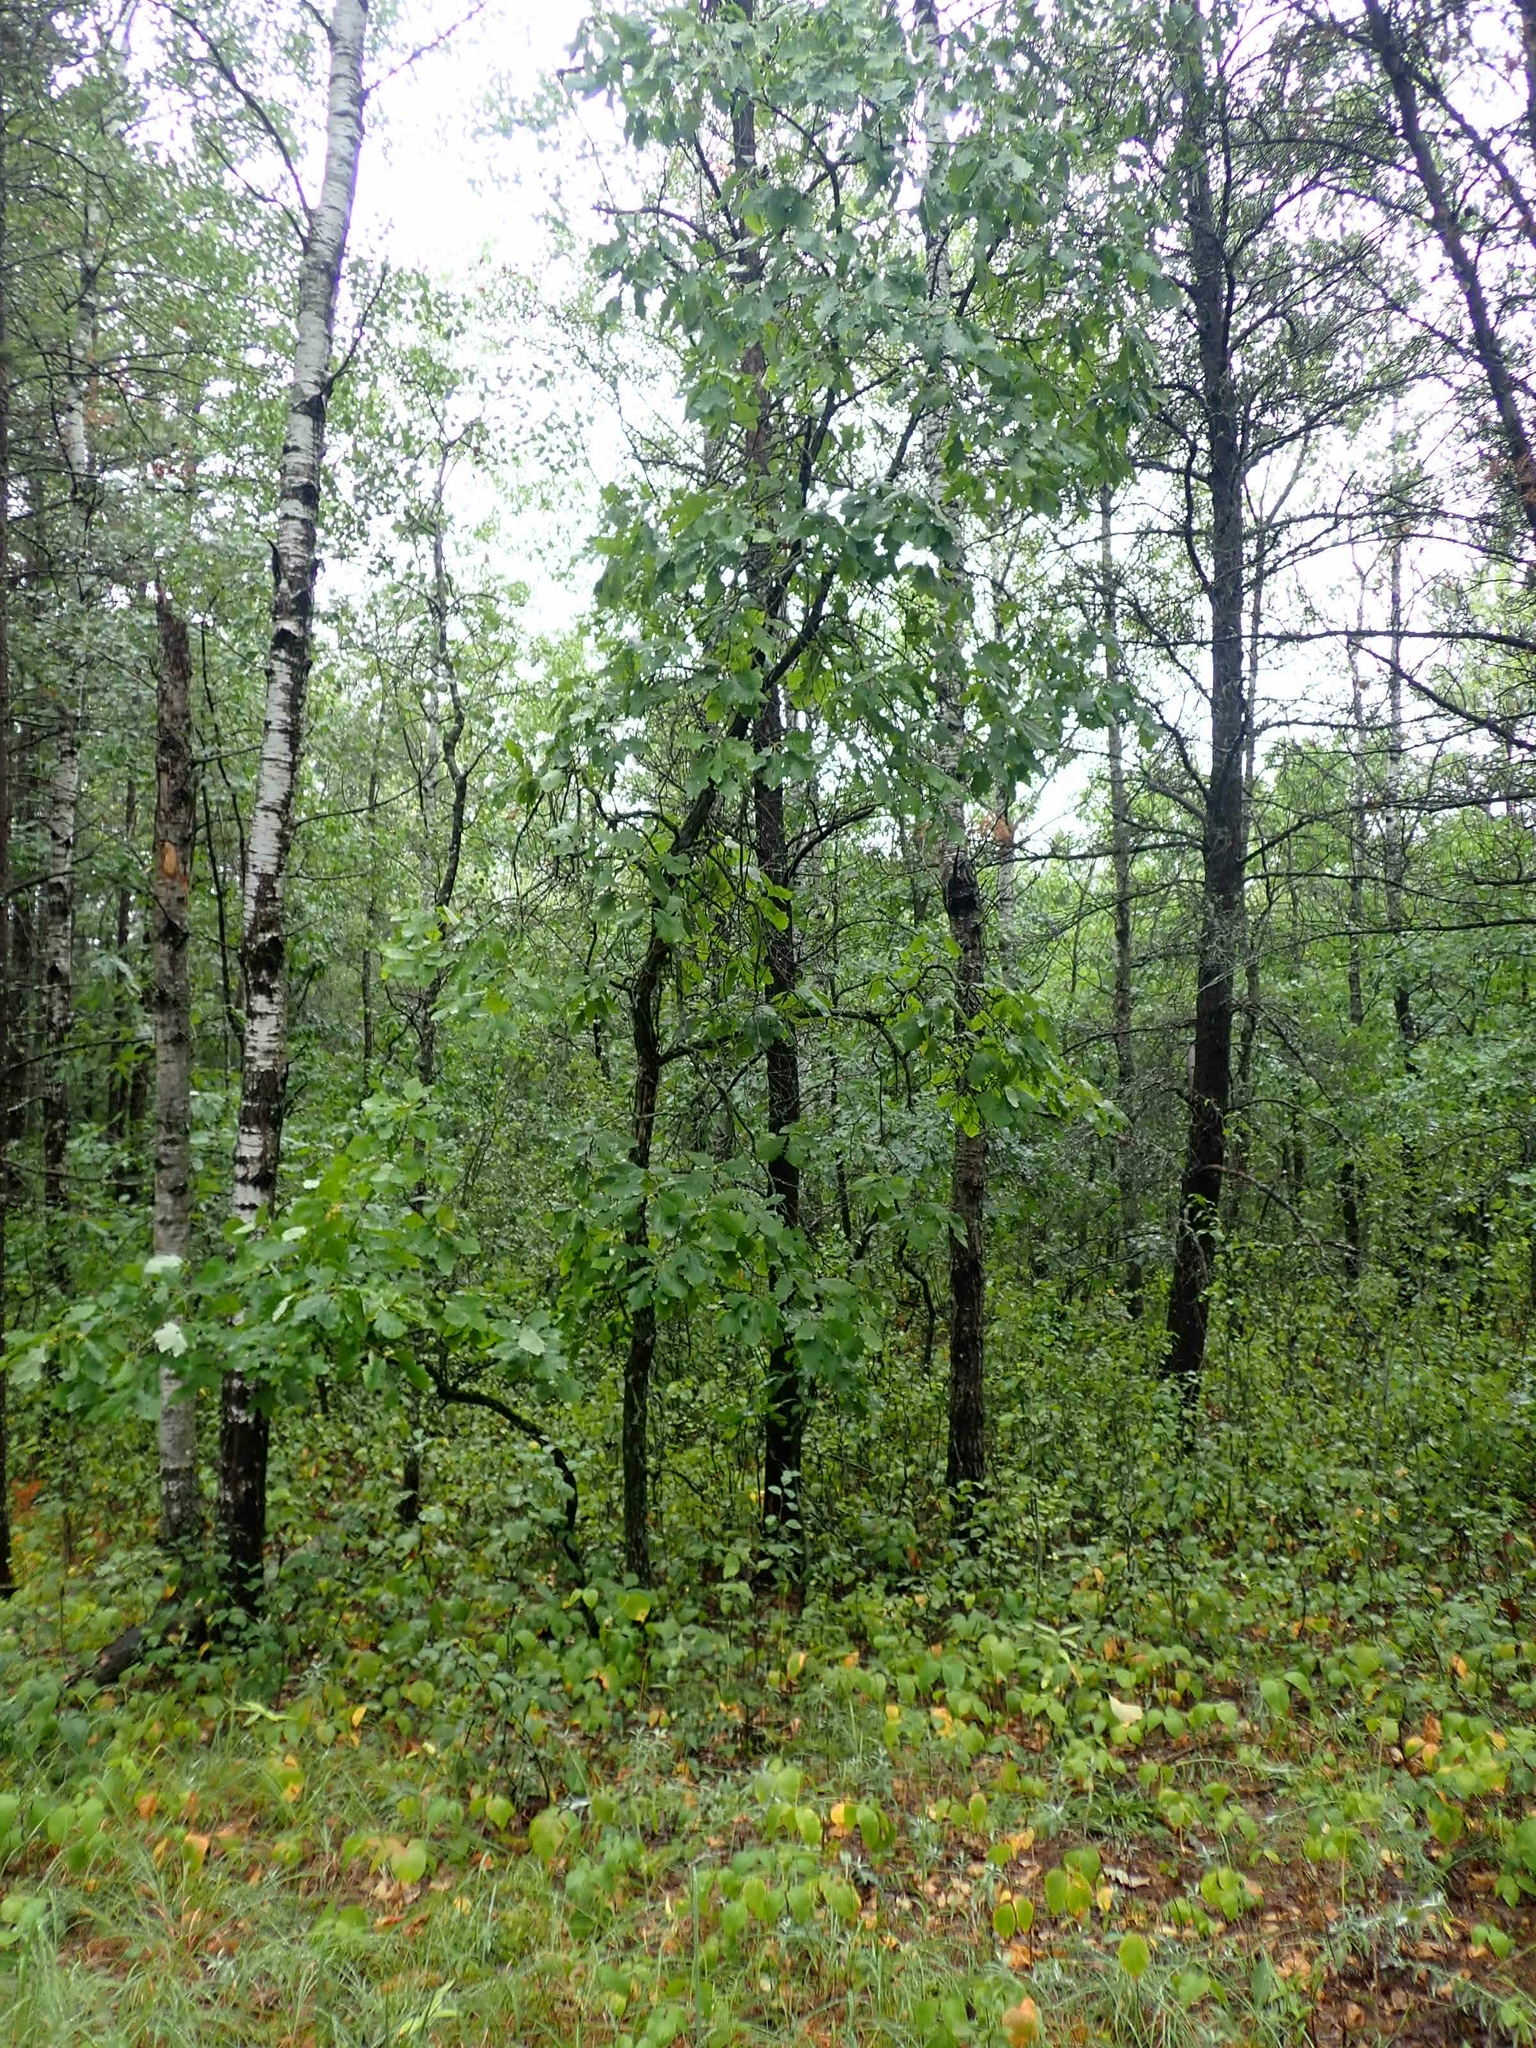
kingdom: Plantae
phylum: Tracheophyta
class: Magnoliopsida
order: Fagales
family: Fagaceae
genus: Quercus
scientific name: Quercus macrocarpa
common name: Bur oak
